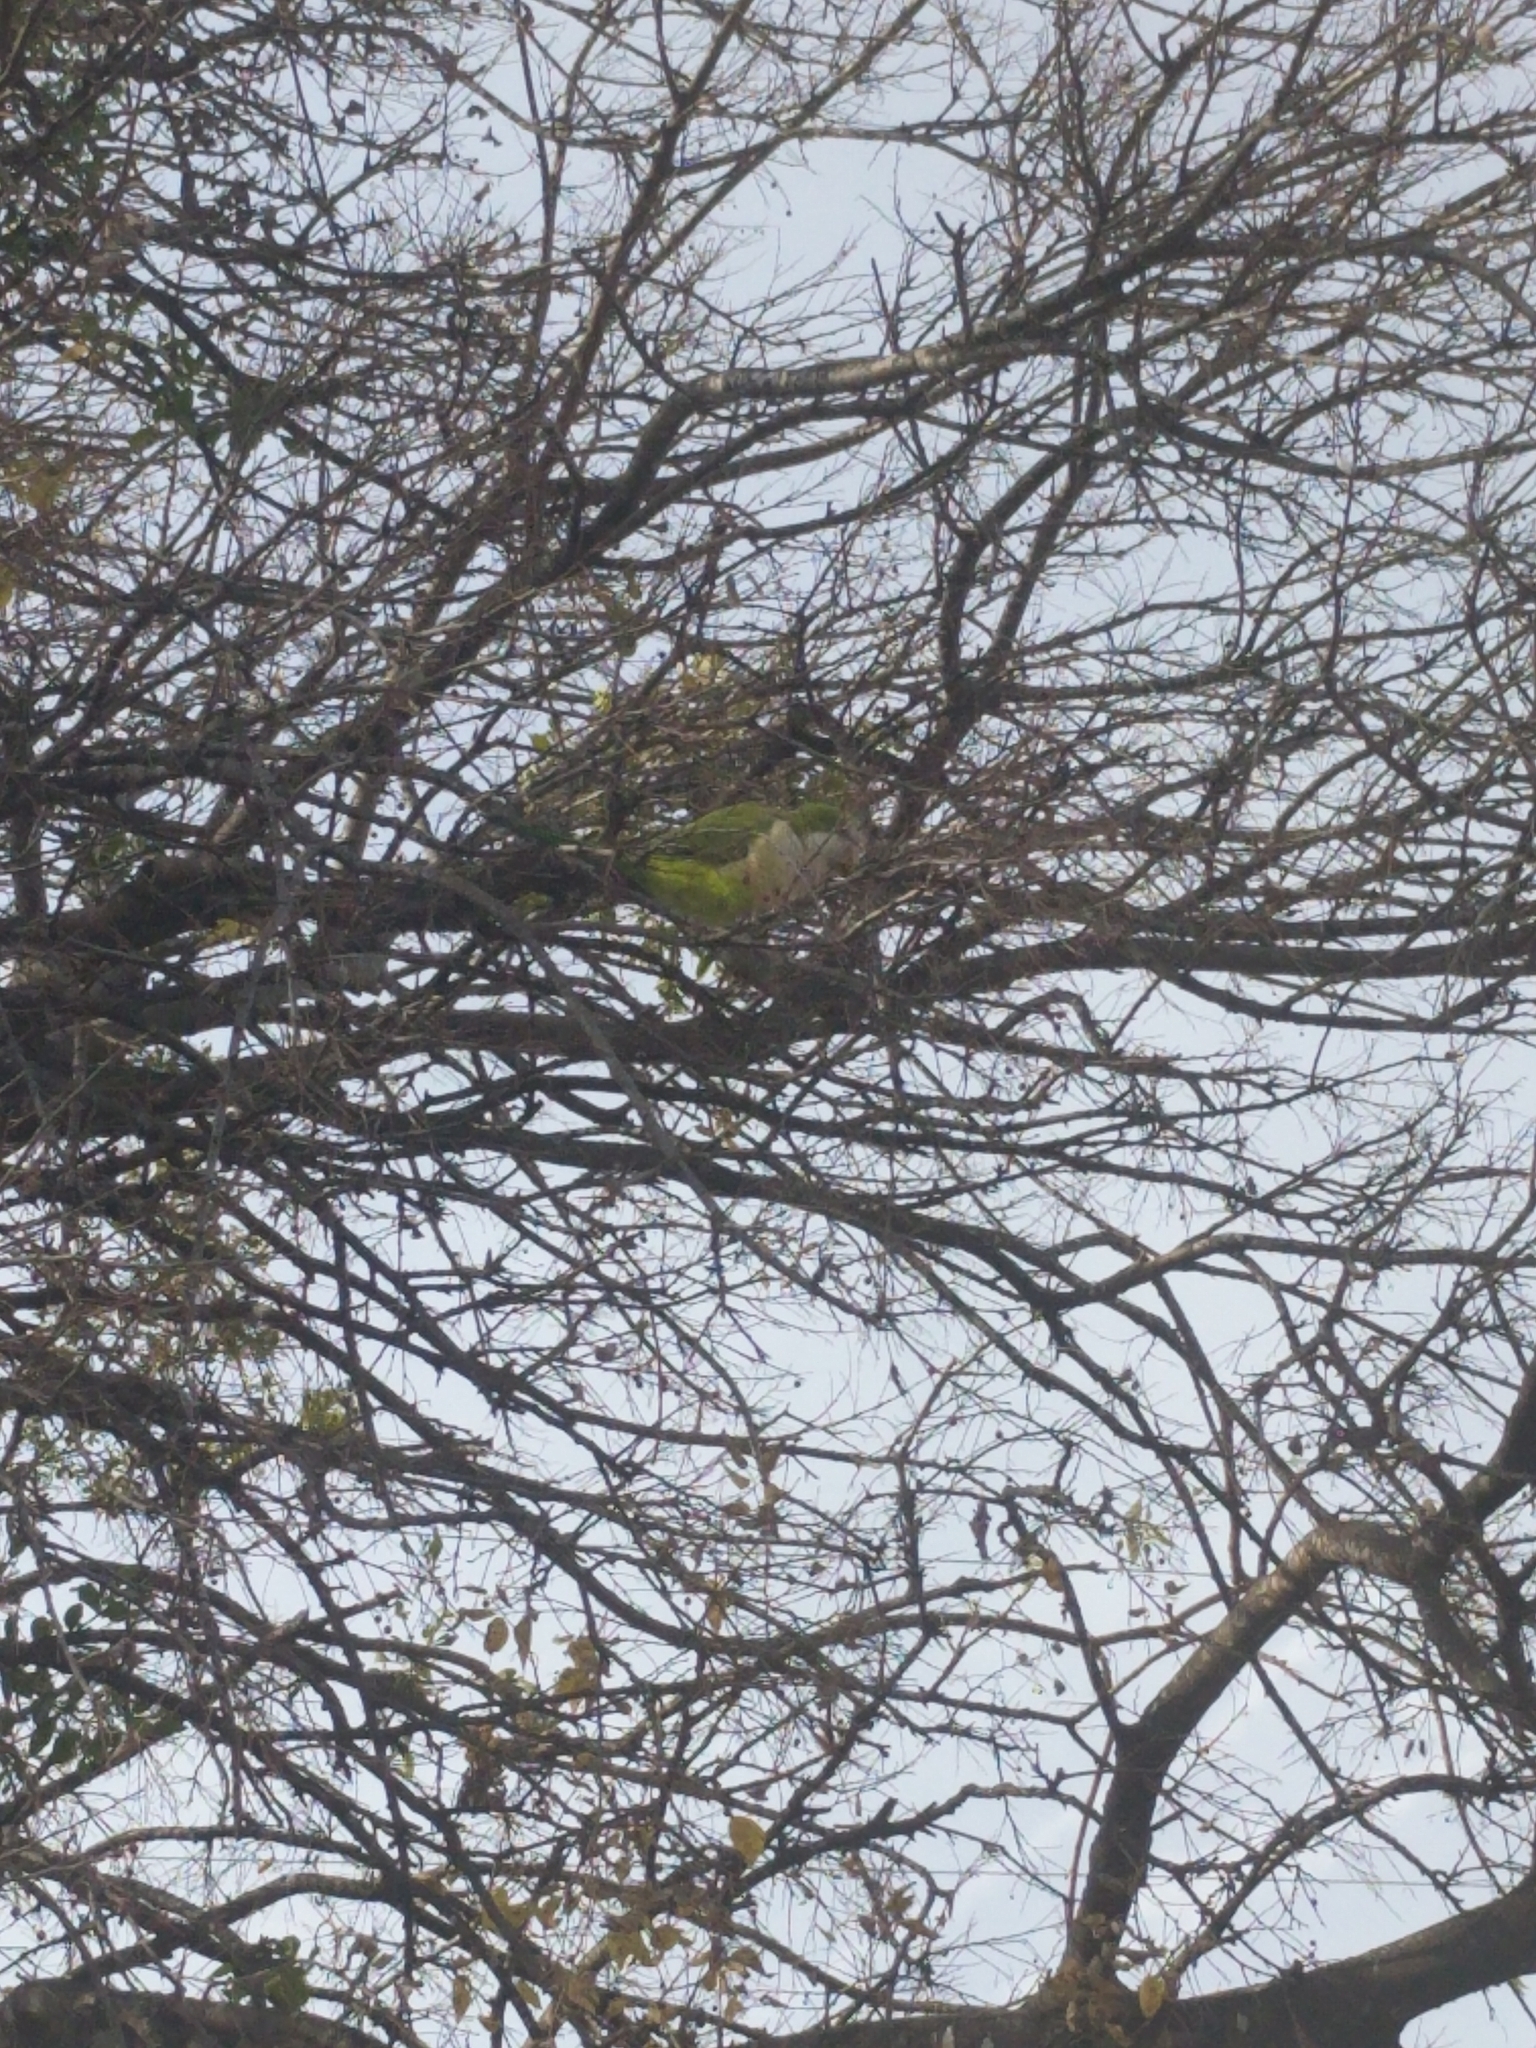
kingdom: Animalia
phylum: Chordata
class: Aves
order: Psittaciformes
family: Psittacidae
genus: Myiopsitta
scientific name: Myiopsitta monachus
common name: Monk parakeet
